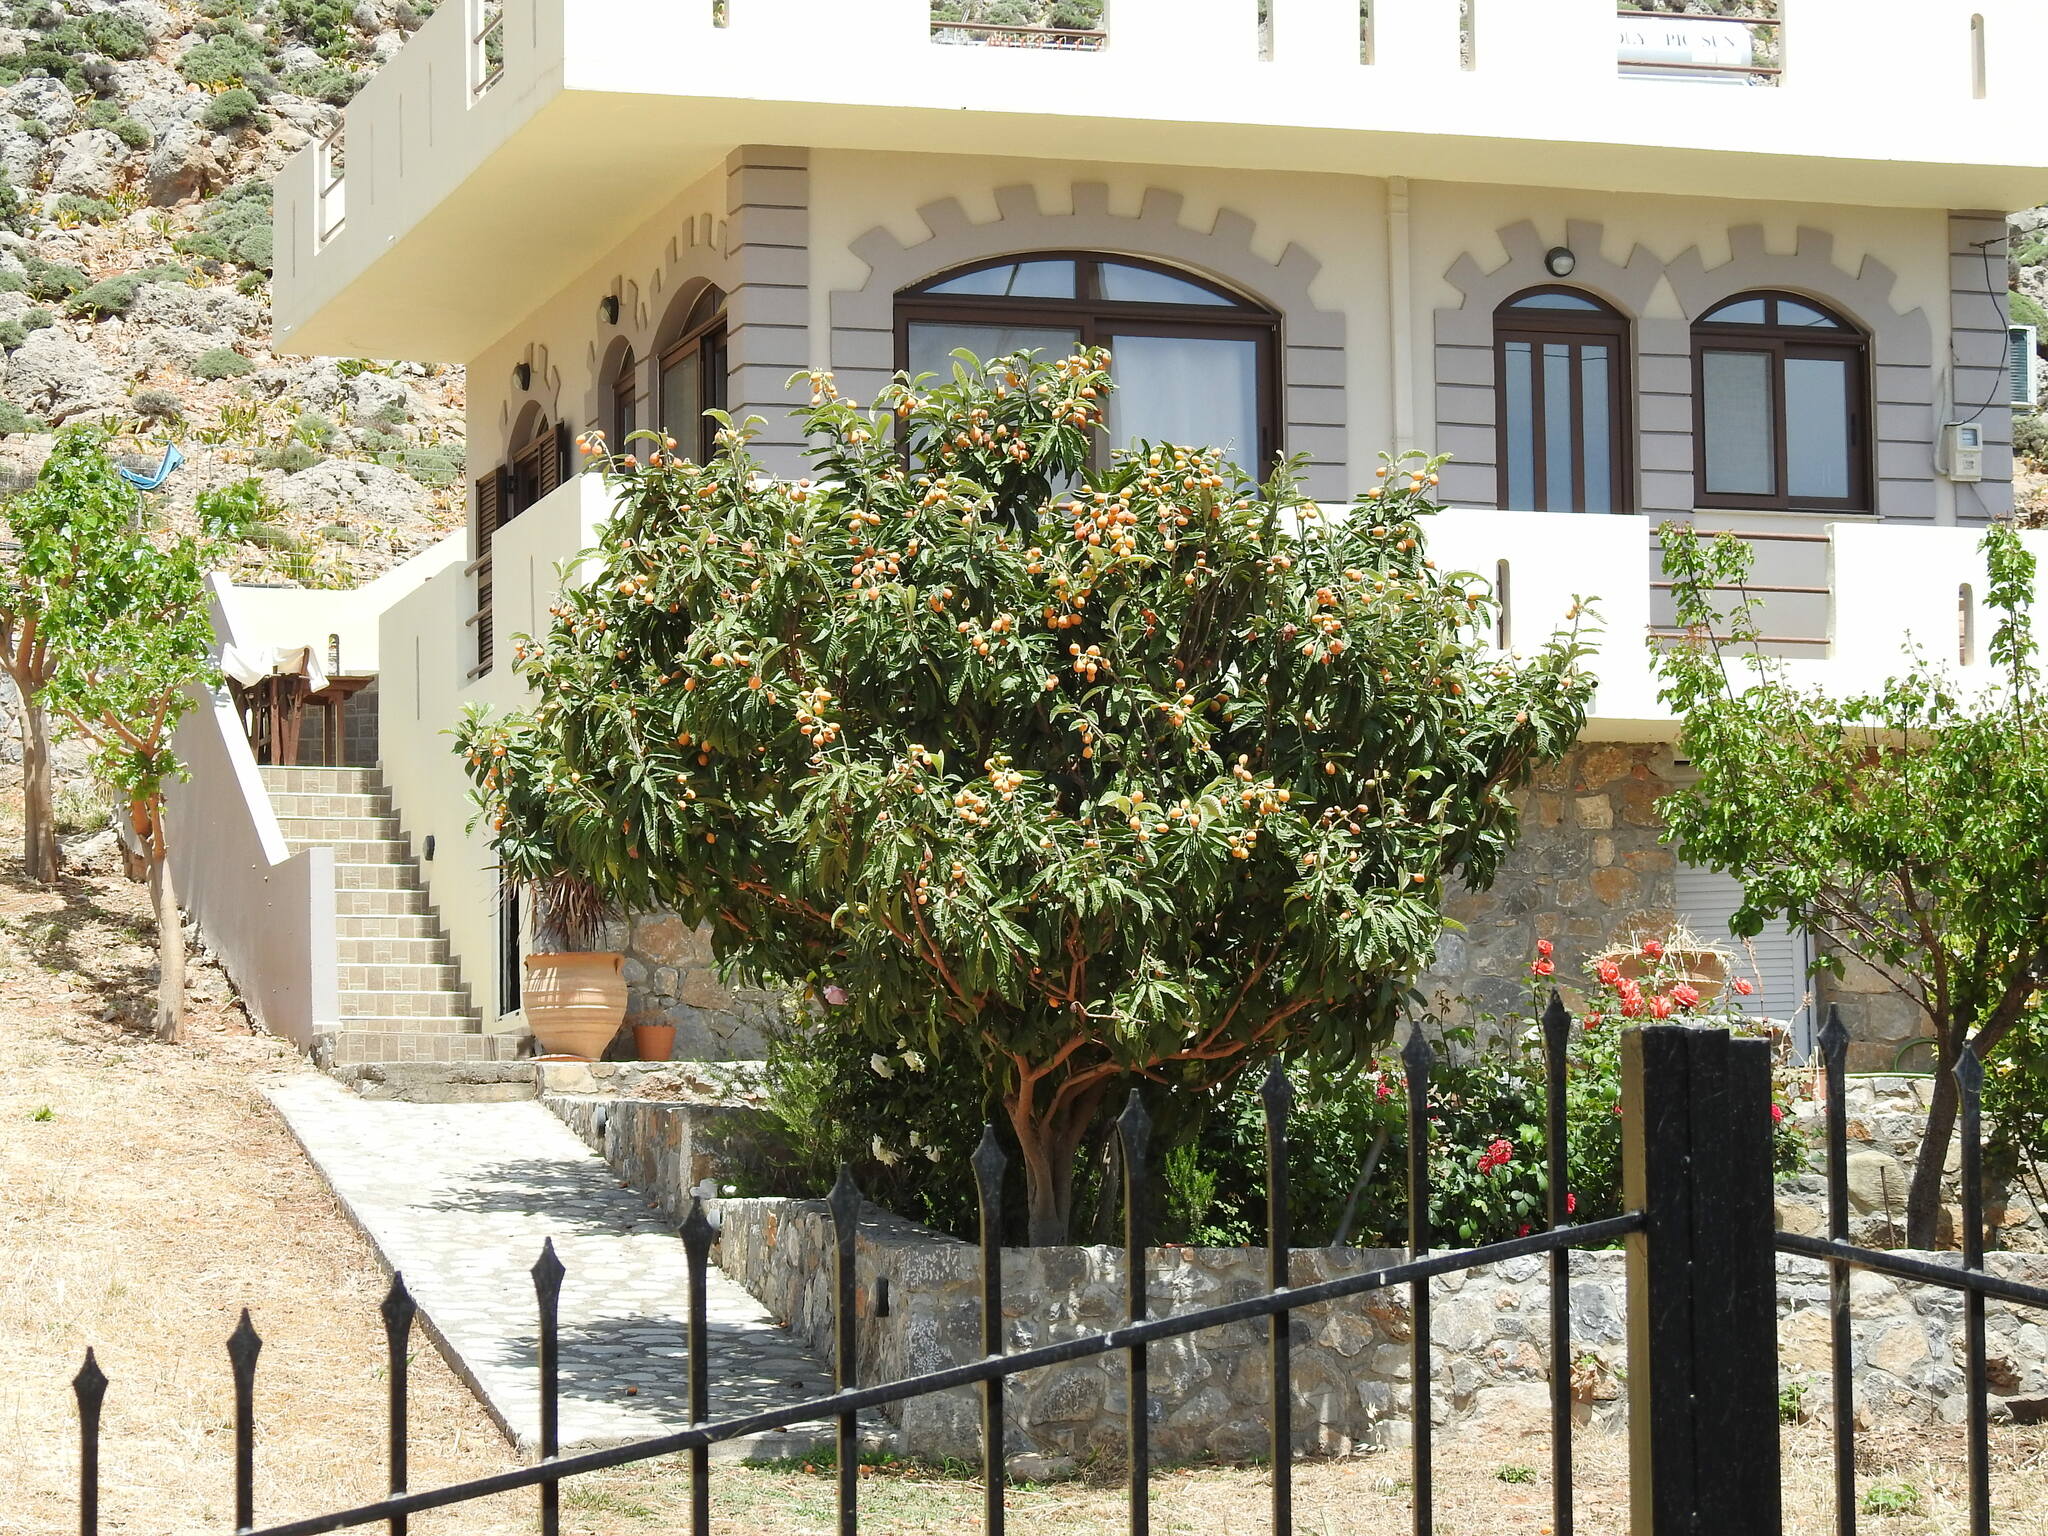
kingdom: Plantae
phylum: Tracheophyta
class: Magnoliopsida
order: Rosales
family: Rosaceae
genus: Rhaphiolepis
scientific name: Rhaphiolepis bibas
